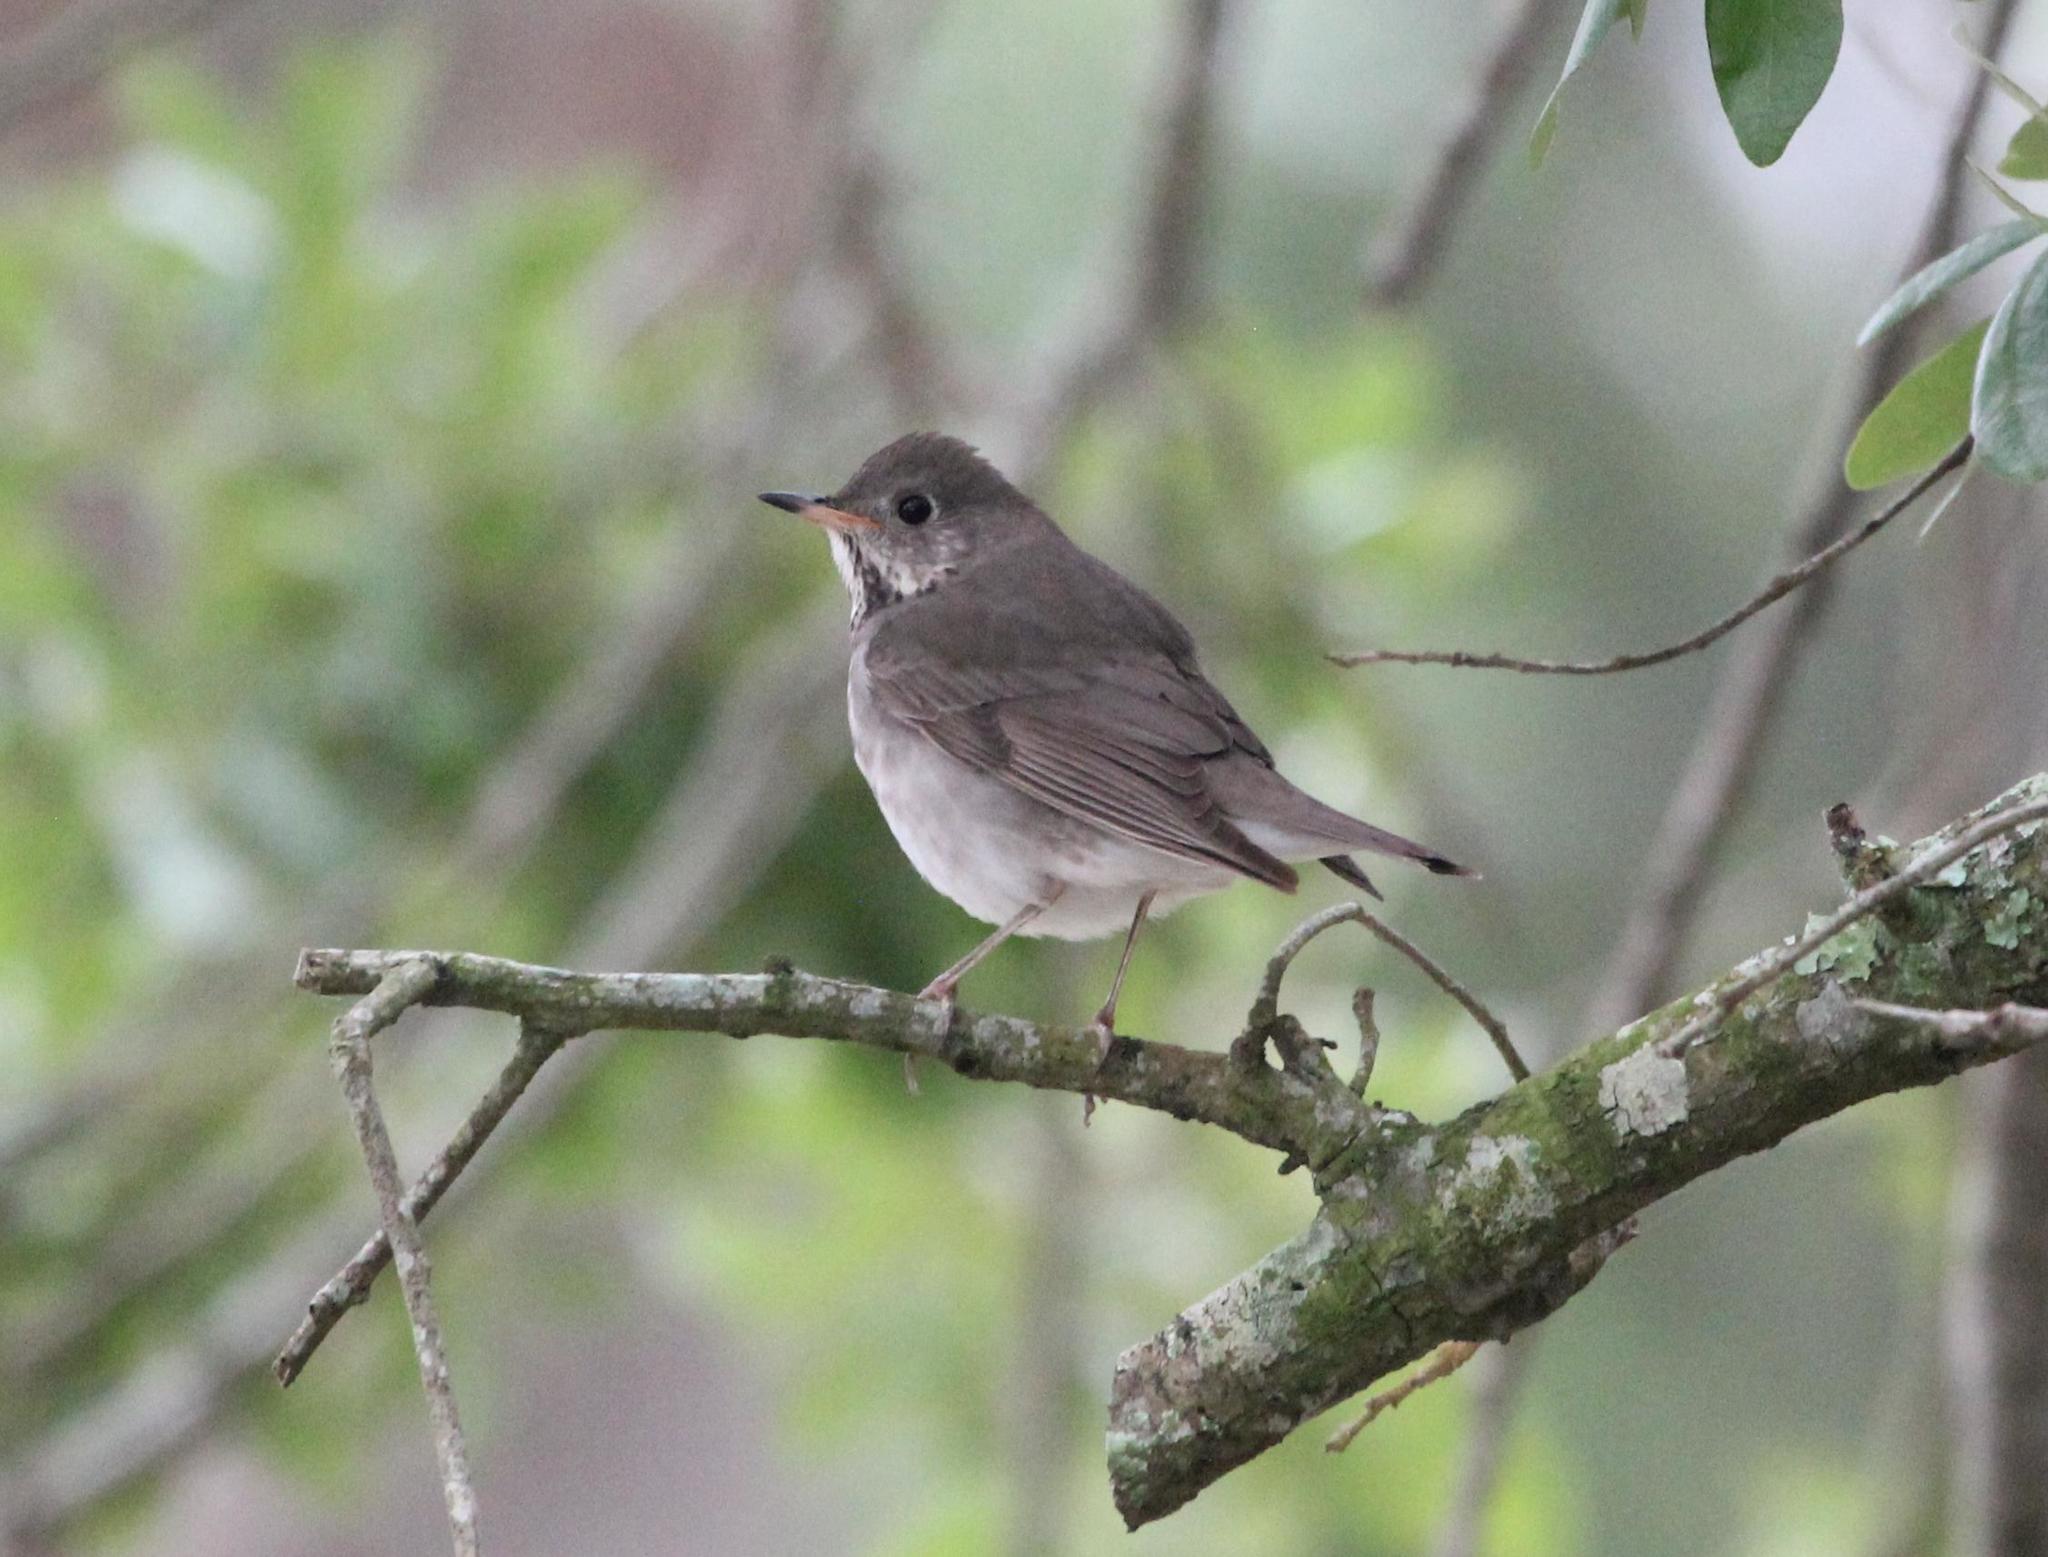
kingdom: Animalia
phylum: Chordata
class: Aves
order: Passeriformes
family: Turdidae
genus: Catharus
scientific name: Catharus minimus
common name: Grey-cheeked thrush
